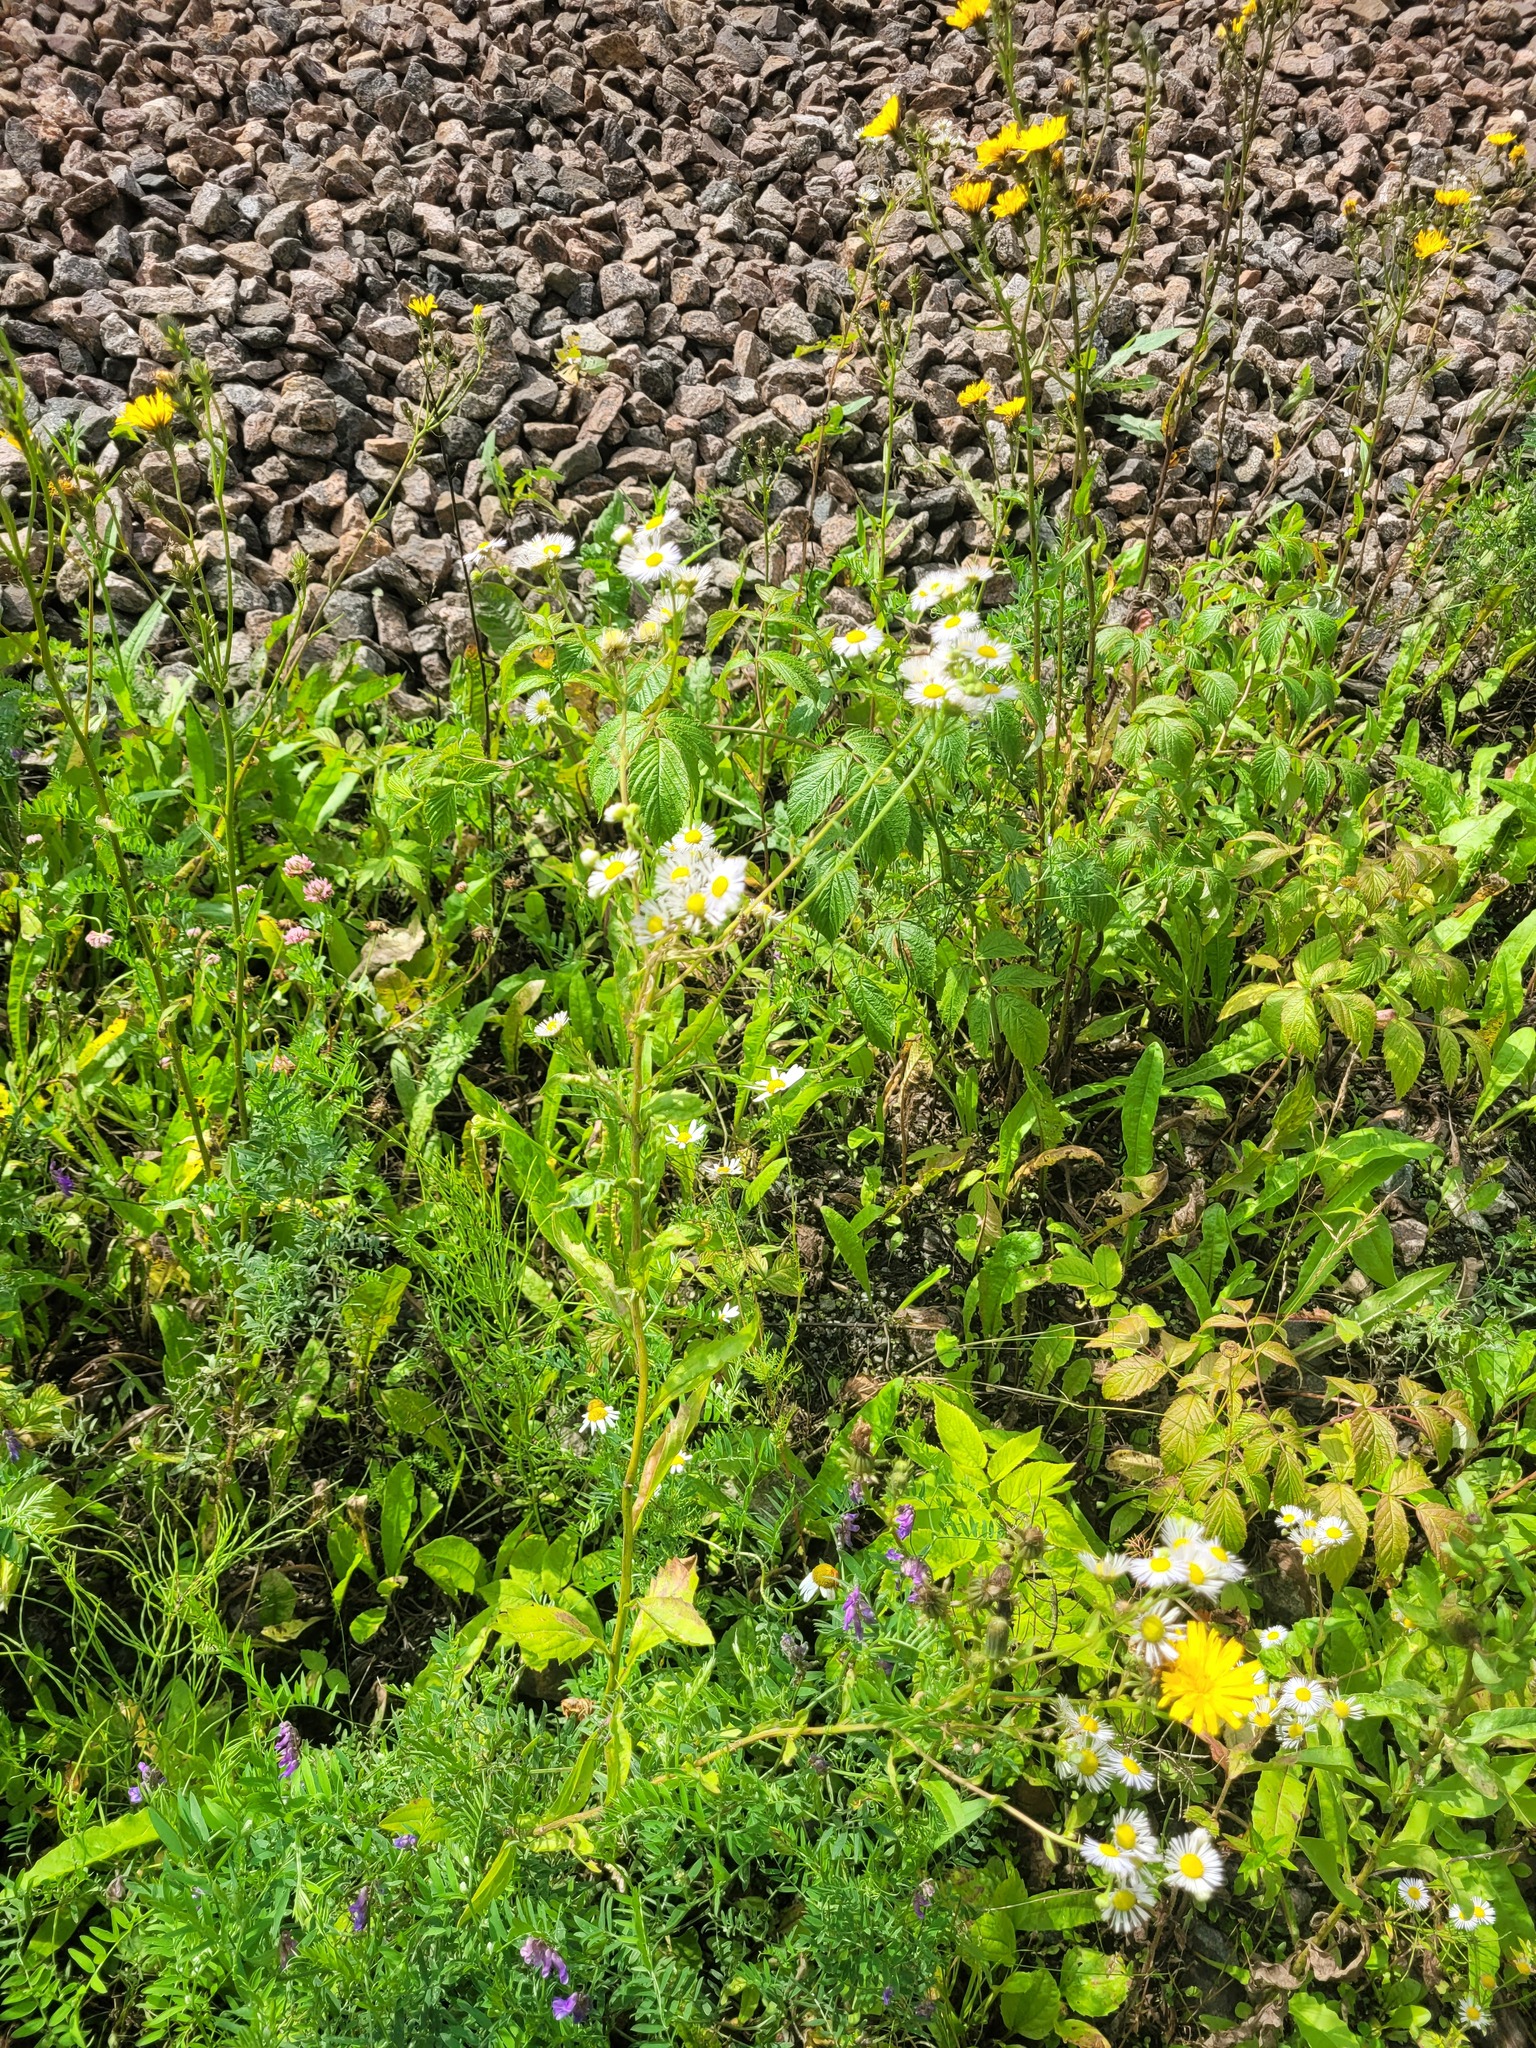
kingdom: Plantae
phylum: Tracheophyta
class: Magnoliopsida
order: Asterales
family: Asteraceae
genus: Erigeron
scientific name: Erigeron annuus
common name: Tall fleabane
